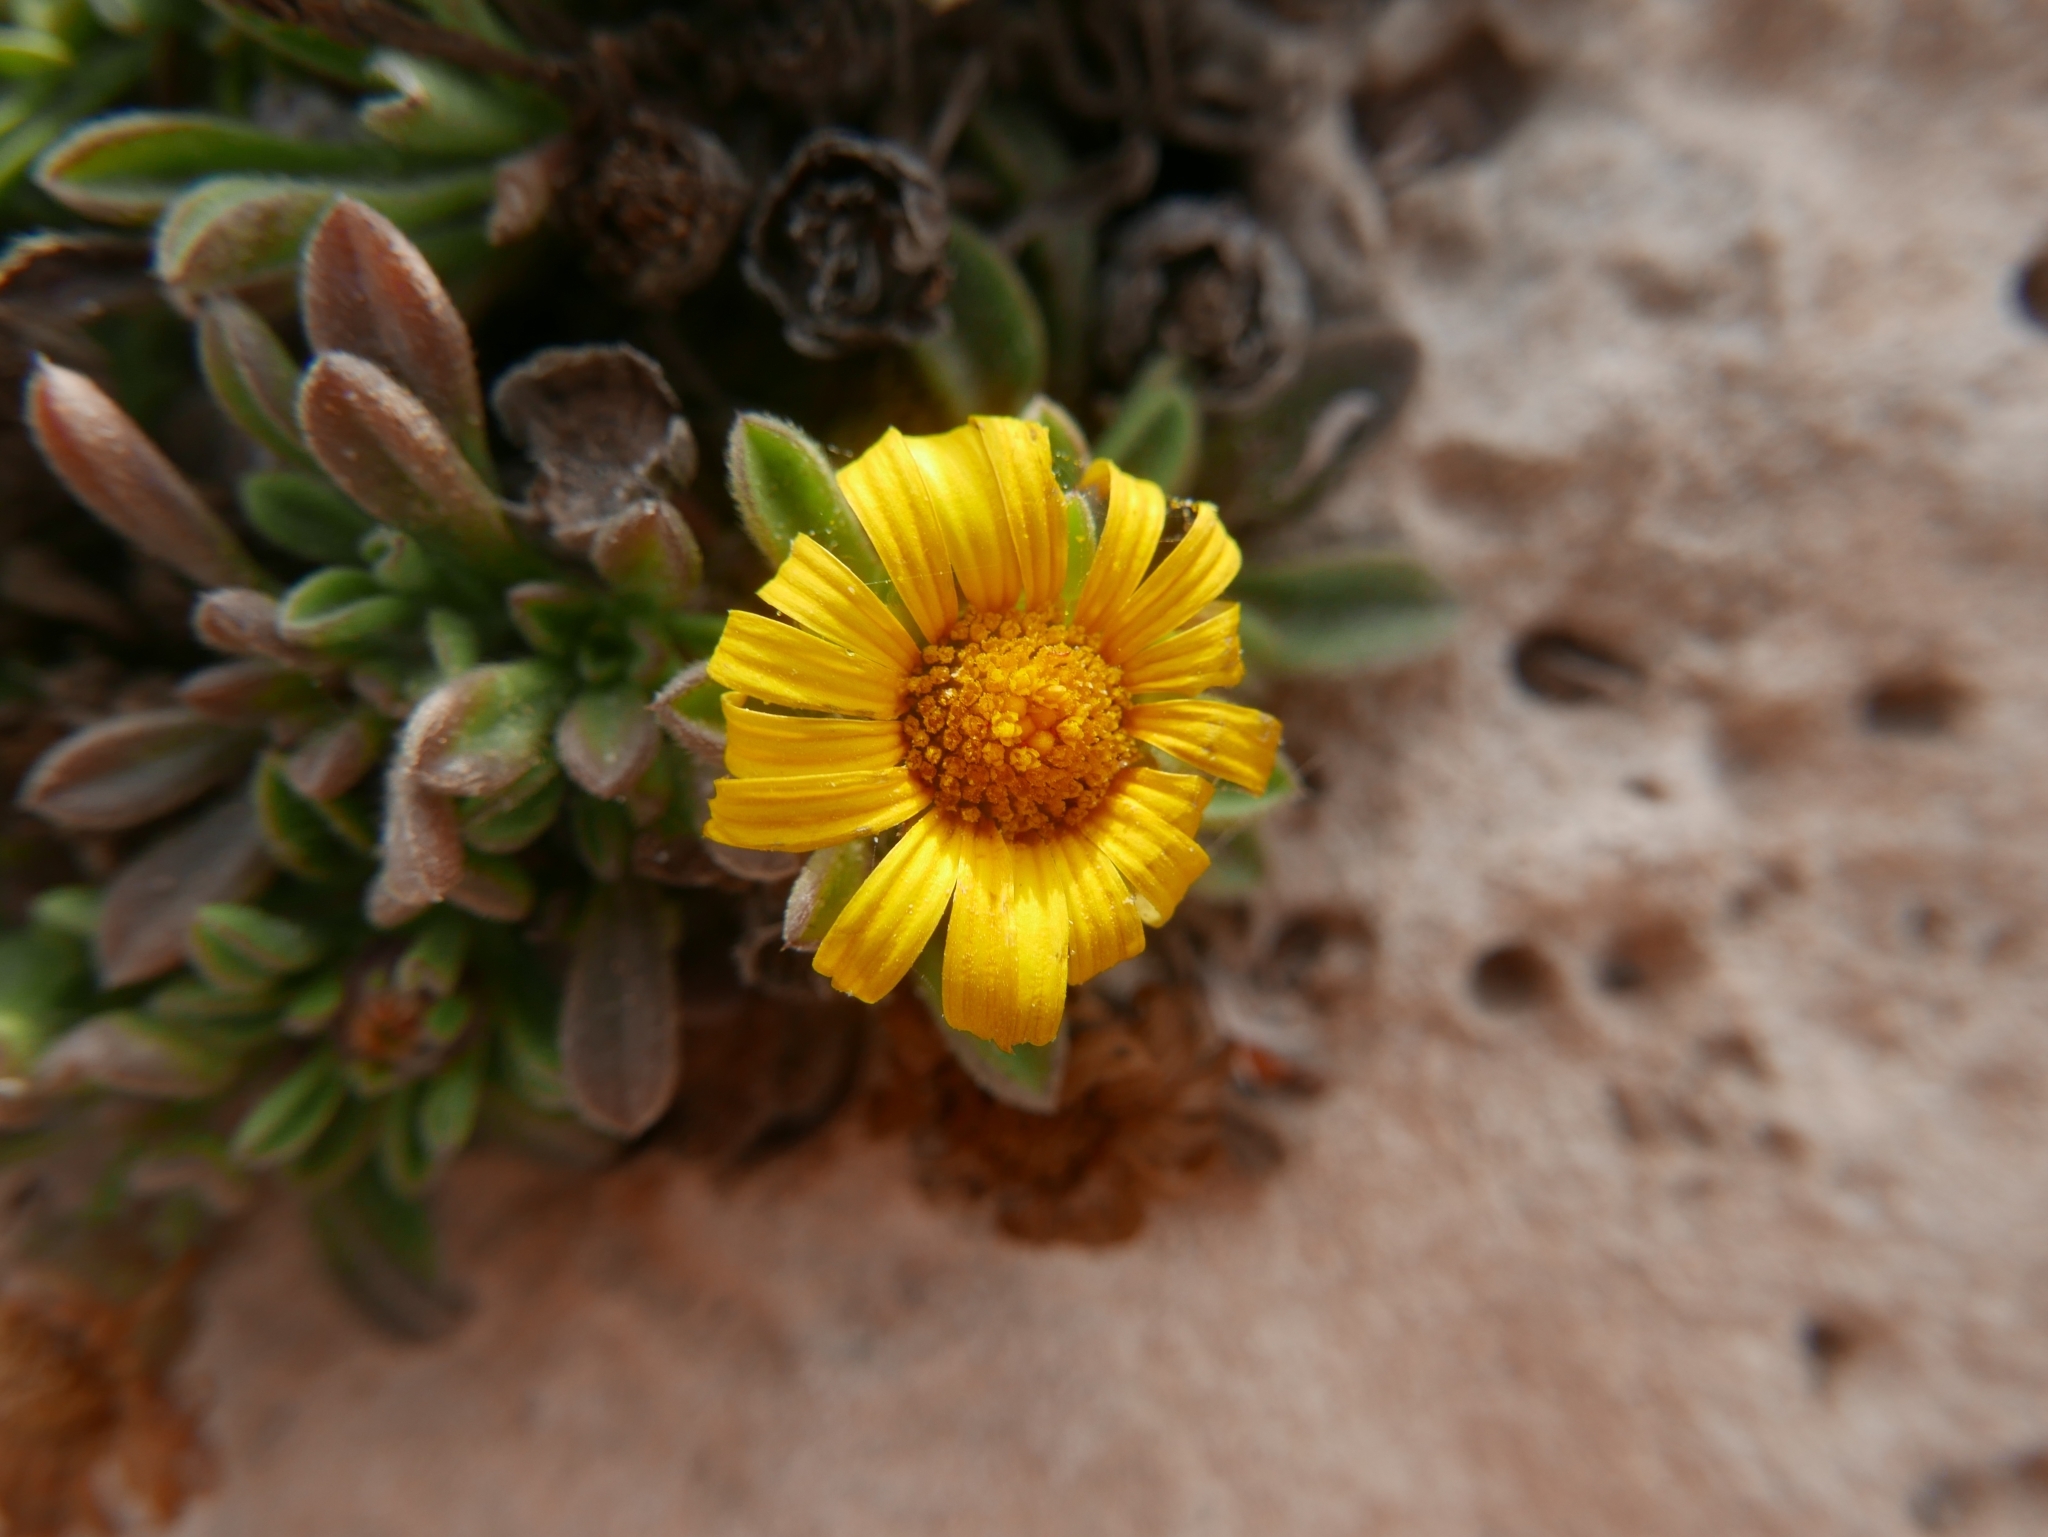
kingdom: Plantae
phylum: Tracheophyta
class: Magnoliopsida
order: Asterales
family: Asteraceae
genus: Pallenis
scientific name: Pallenis maritima
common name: Golden coin daisy
